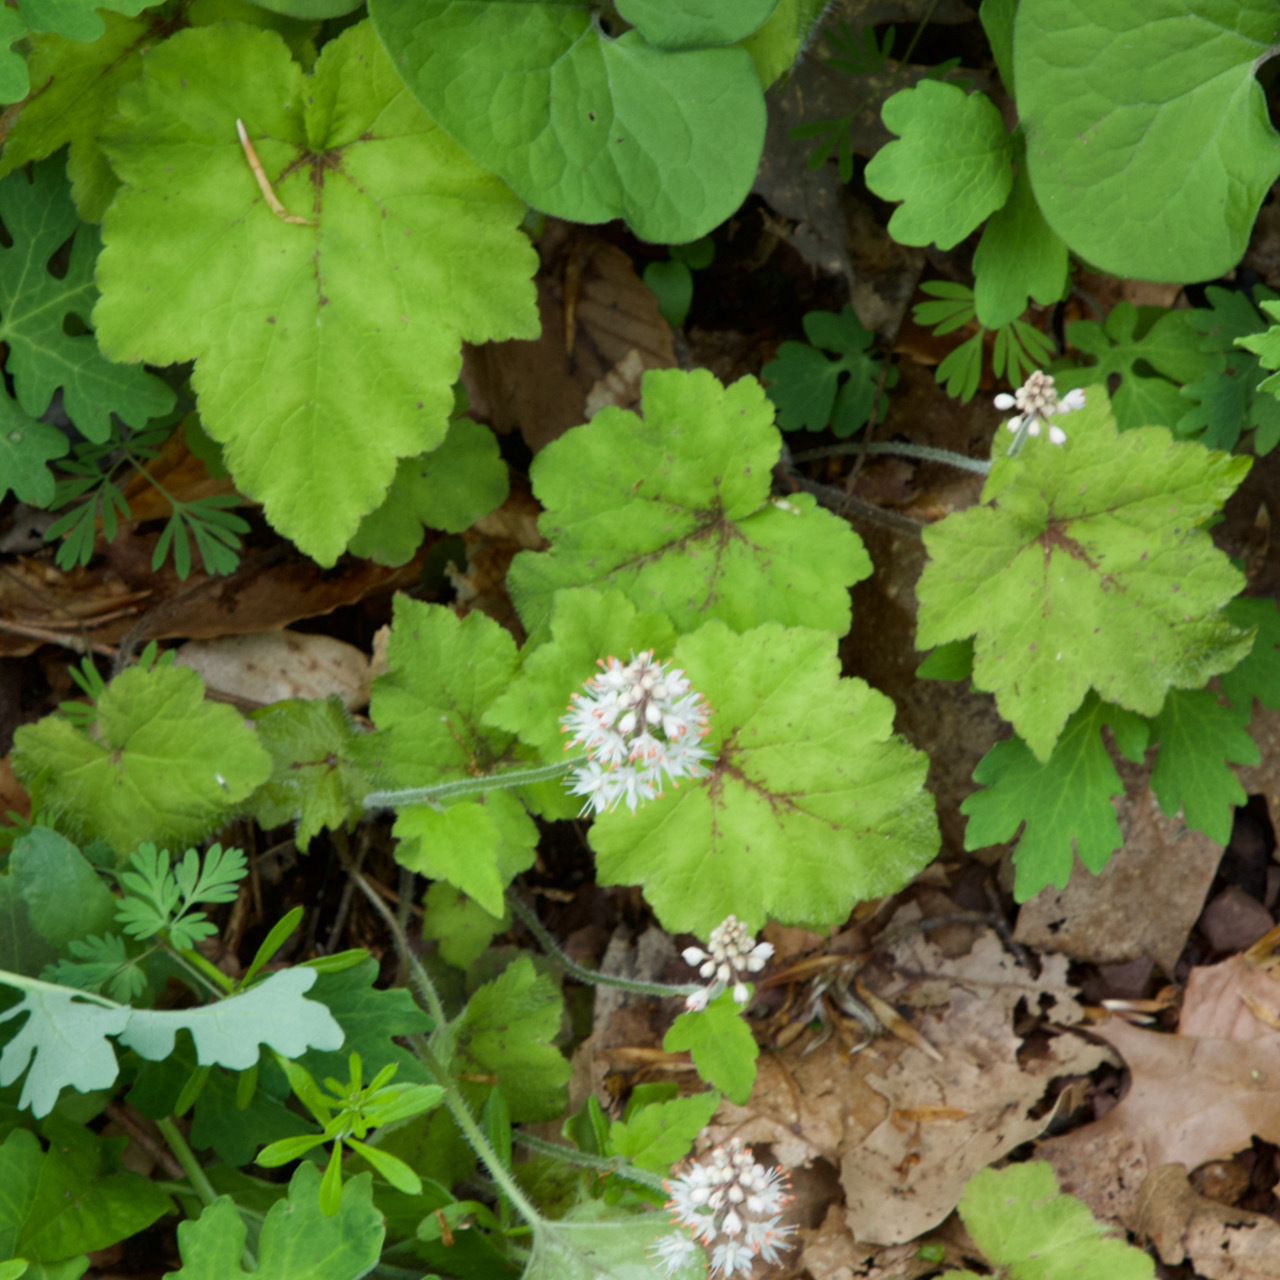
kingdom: Plantae
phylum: Tracheophyta
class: Magnoliopsida
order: Saxifragales
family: Saxifragaceae
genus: Tiarella
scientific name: Tiarella stolonifera
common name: Stoloniferous foamflower
